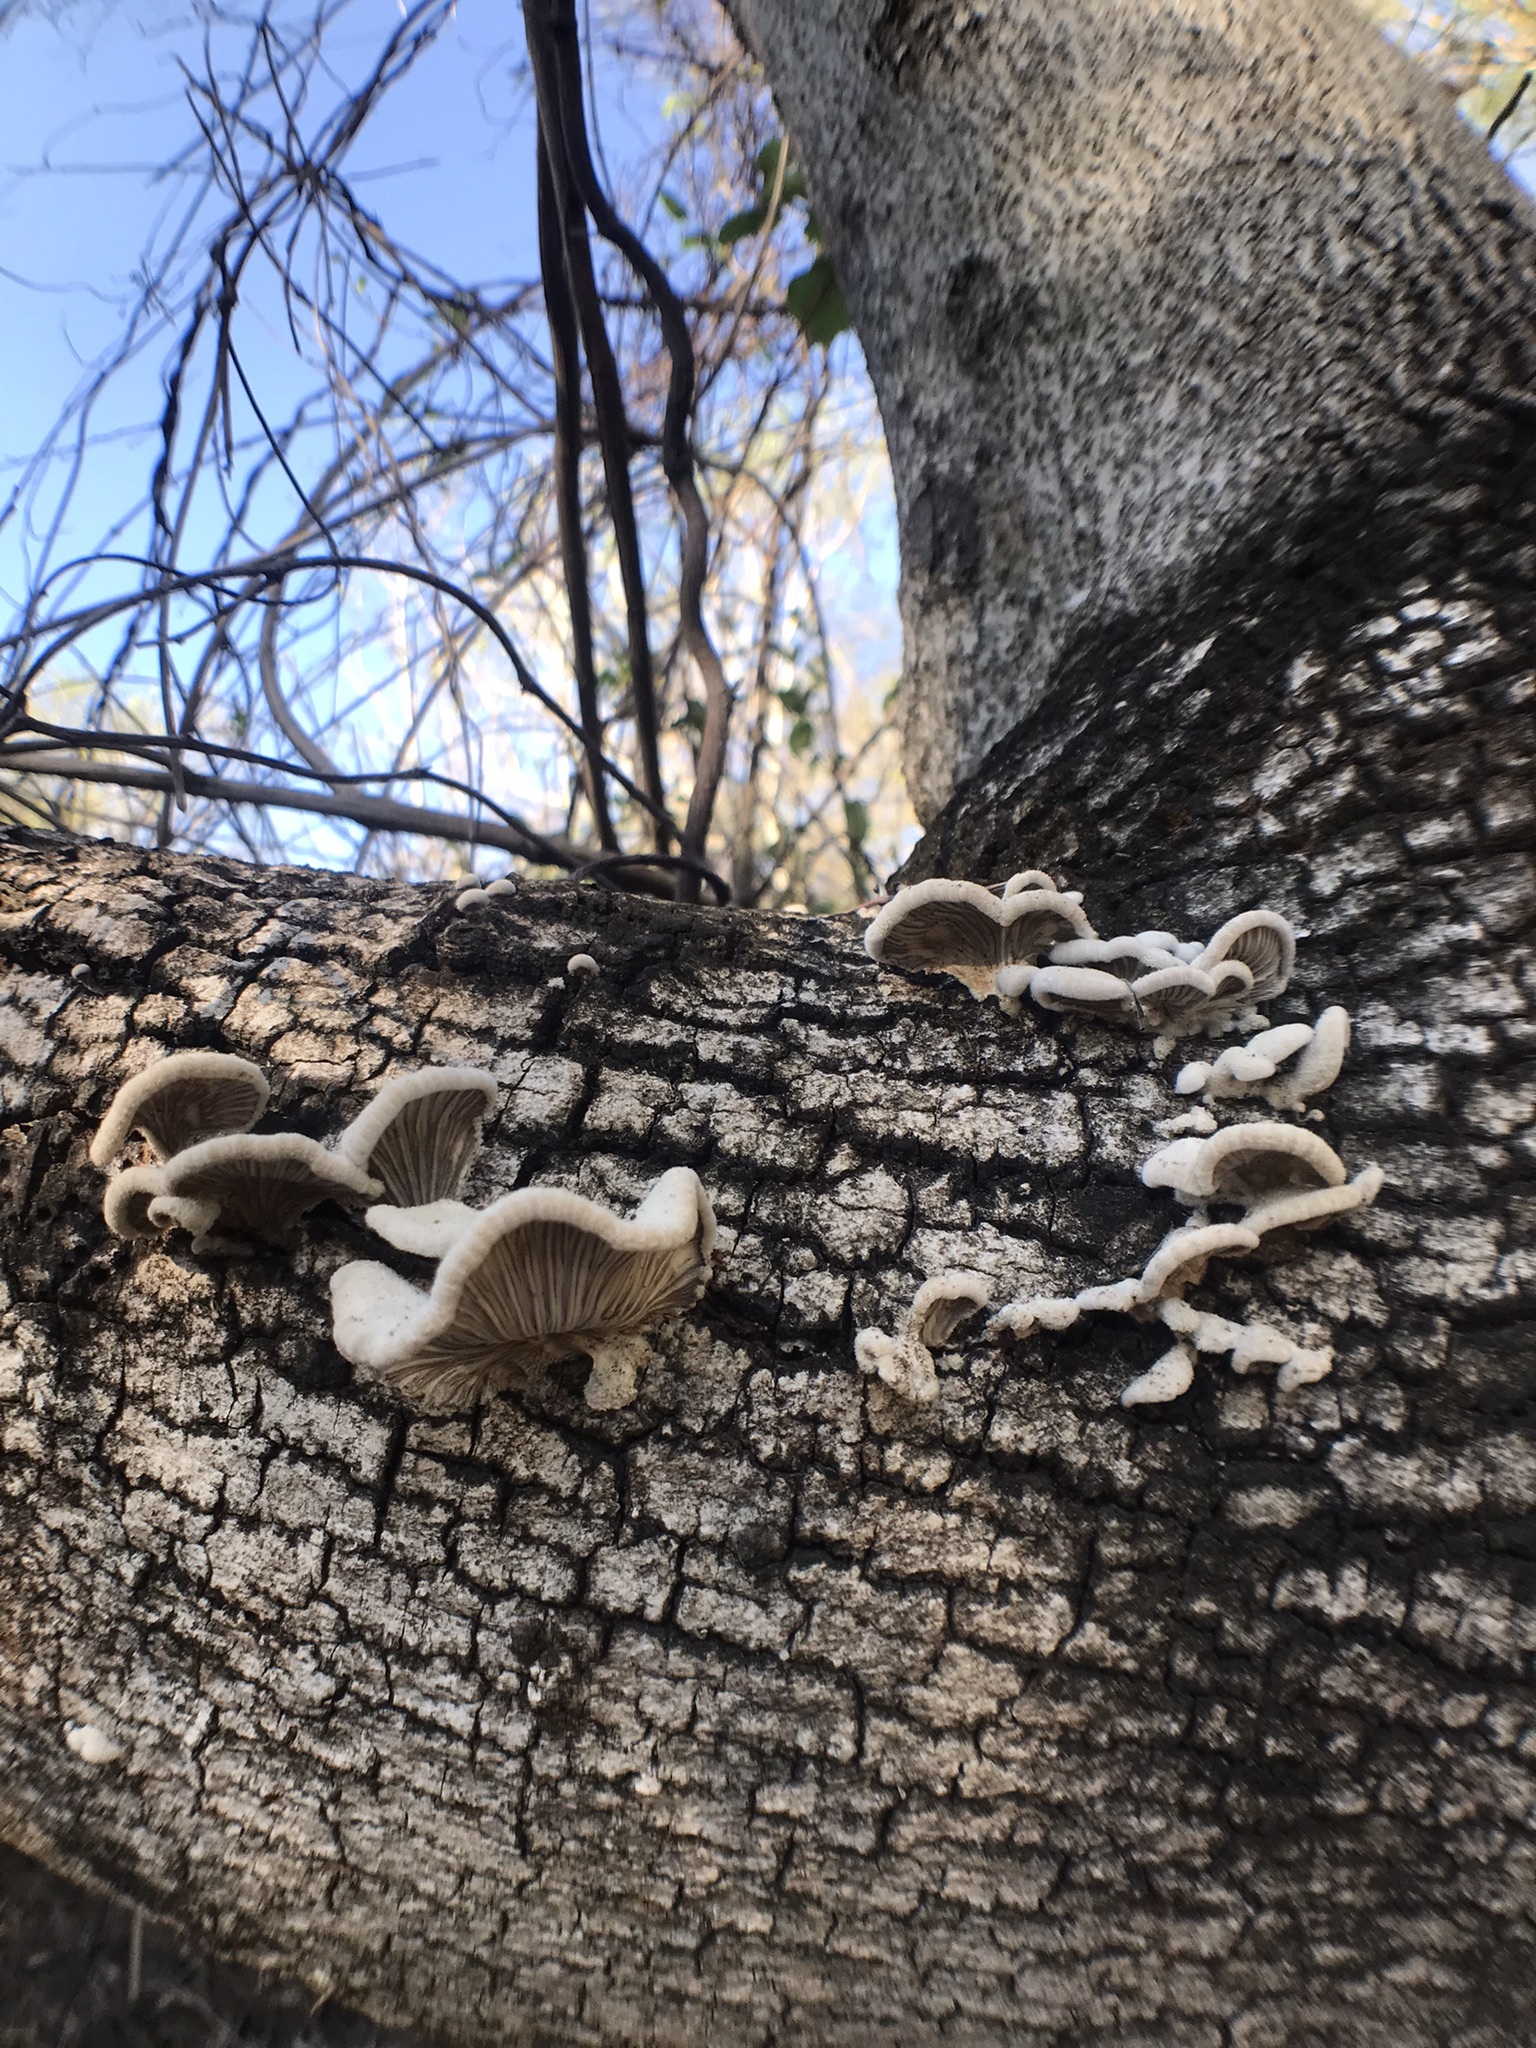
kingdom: Fungi
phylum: Basidiomycota
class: Agaricomycetes
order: Agaricales
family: Schizophyllaceae
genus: Schizophyllum
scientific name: Schizophyllum commune
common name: Common porecrust
